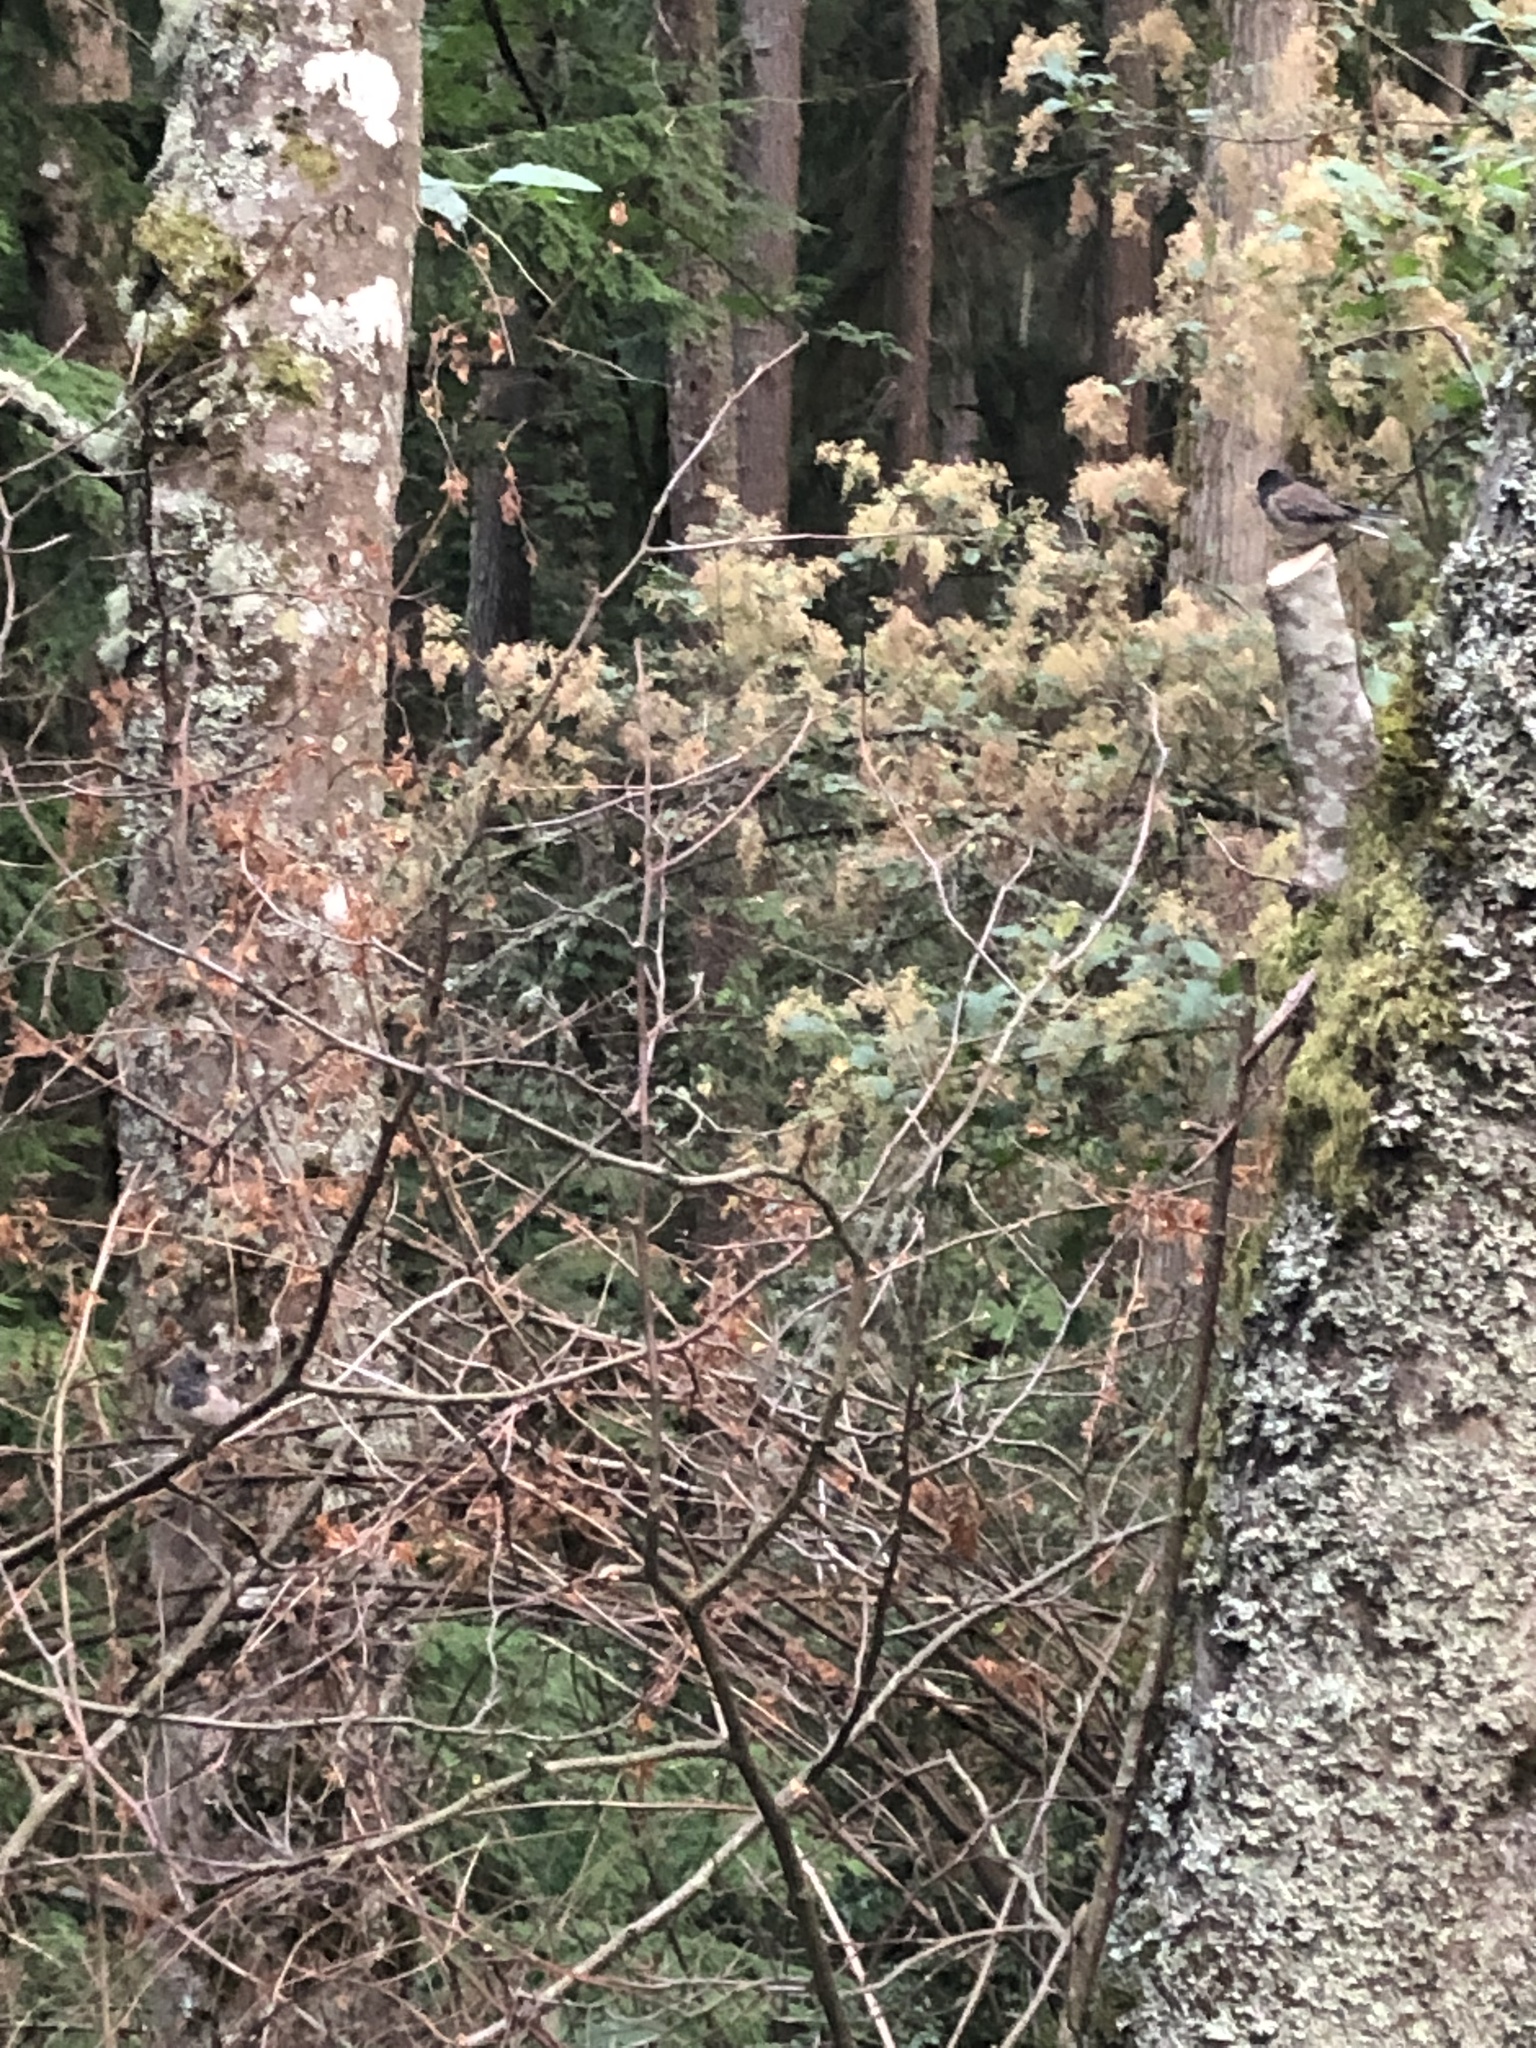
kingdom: Animalia
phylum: Chordata
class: Aves
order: Passeriformes
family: Passerellidae
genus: Junco
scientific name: Junco hyemalis
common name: Dark-eyed junco
